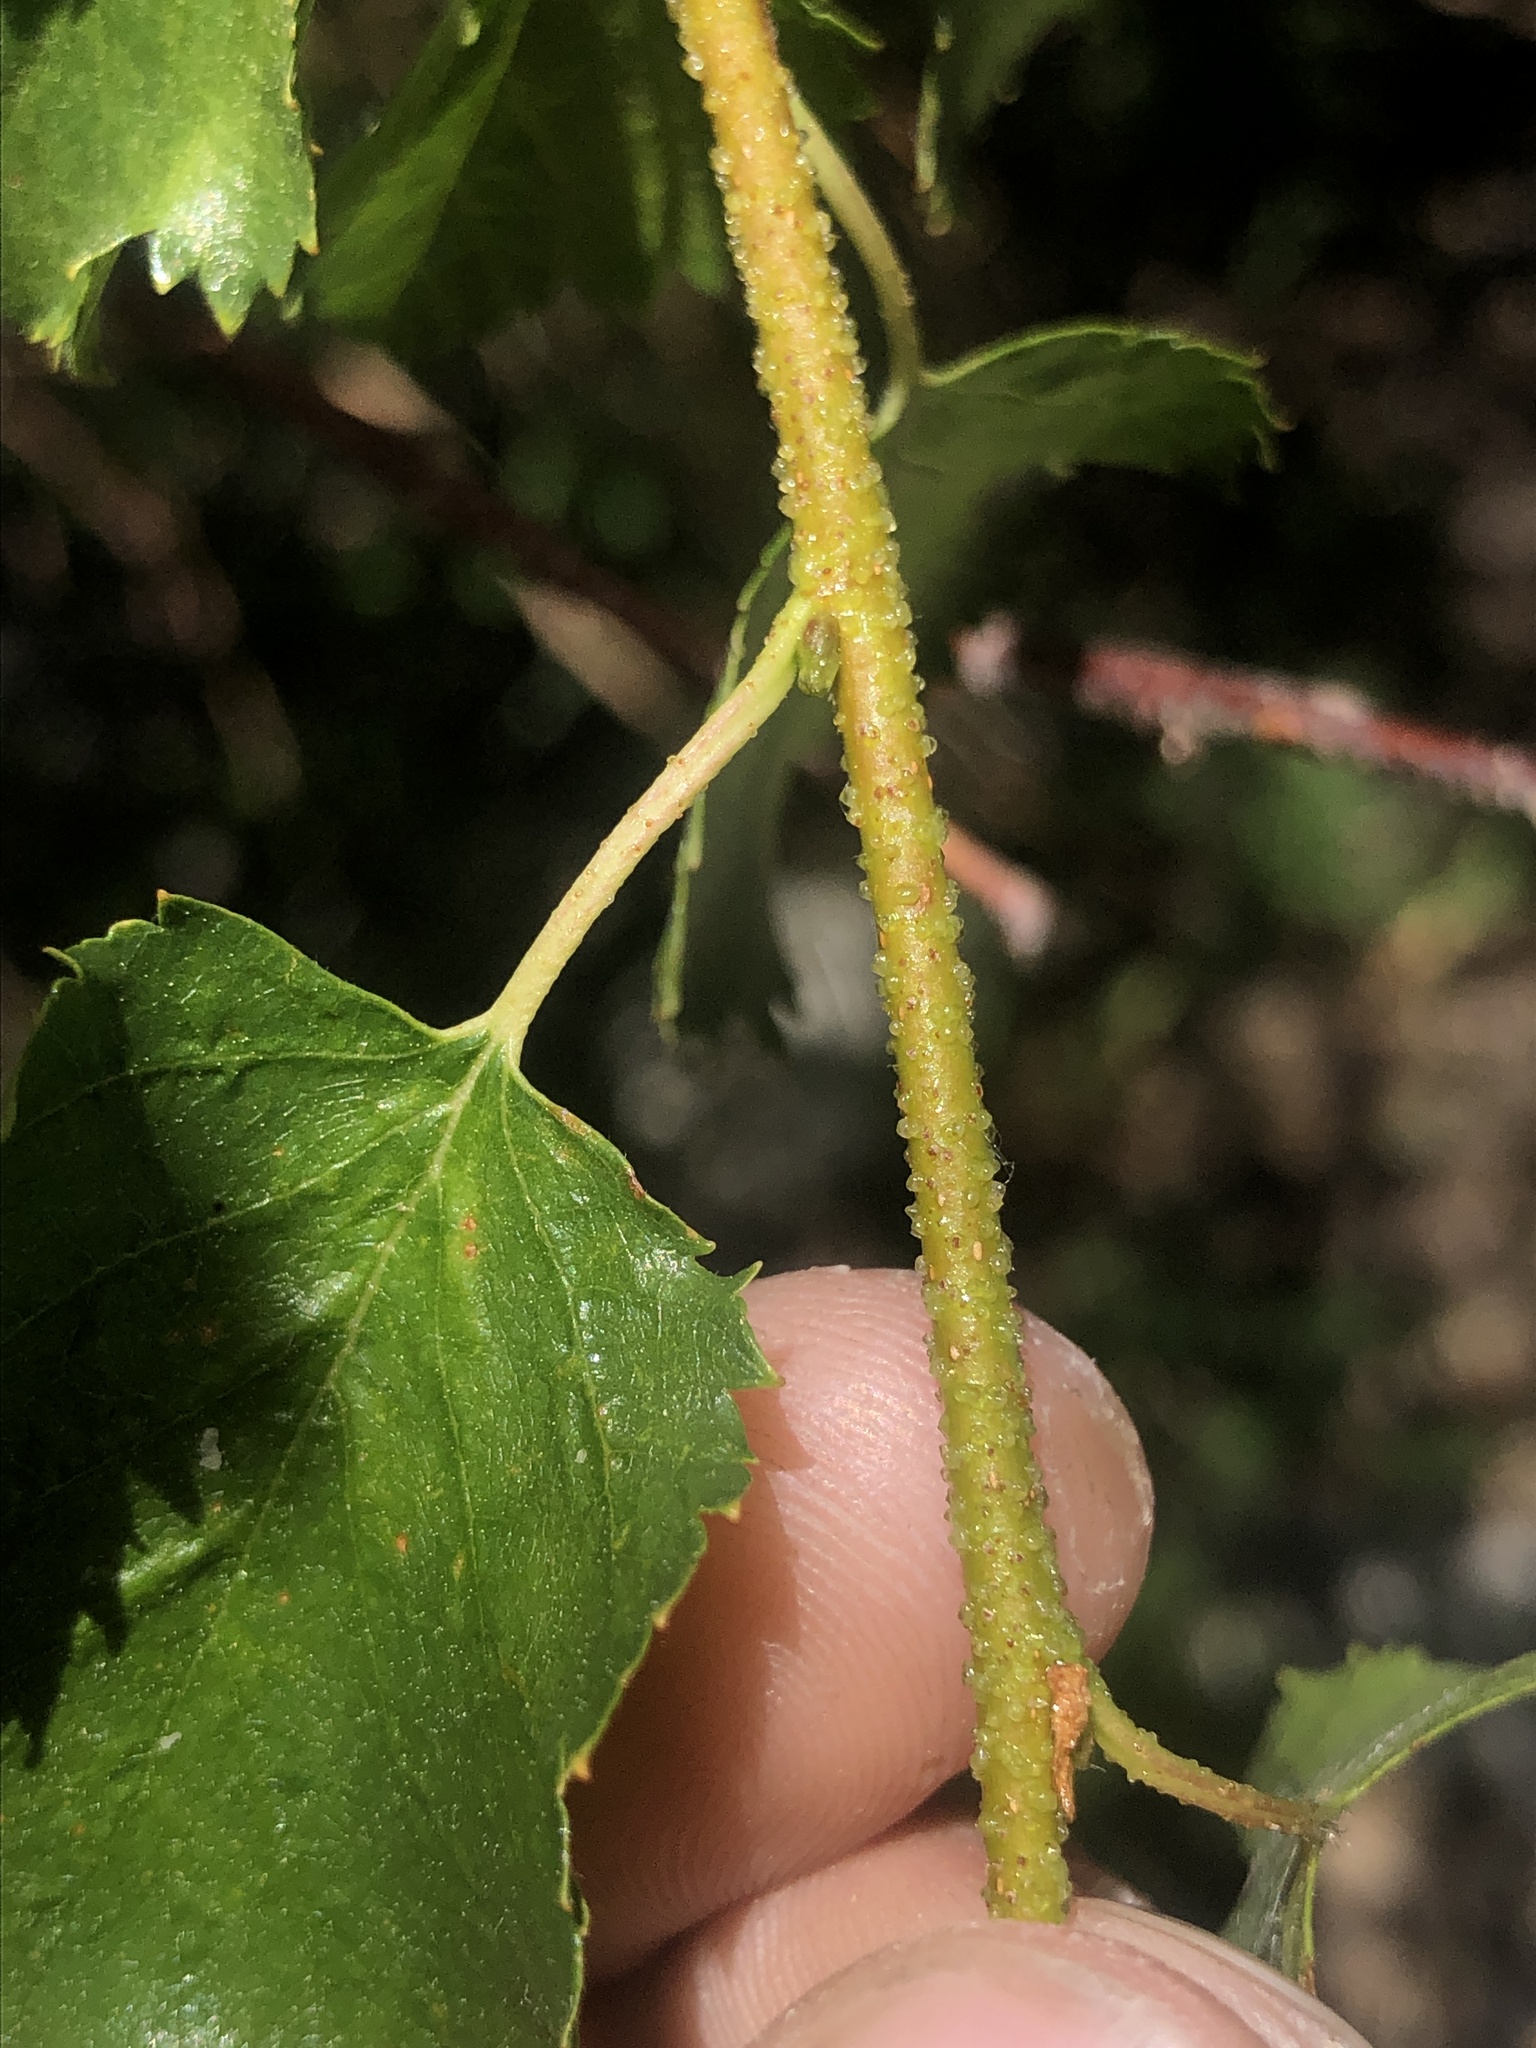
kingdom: Plantae
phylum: Tracheophyta
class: Magnoliopsida
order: Fagales
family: Betulaceae
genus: Betula
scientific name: Betula occidentalis
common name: River birch
